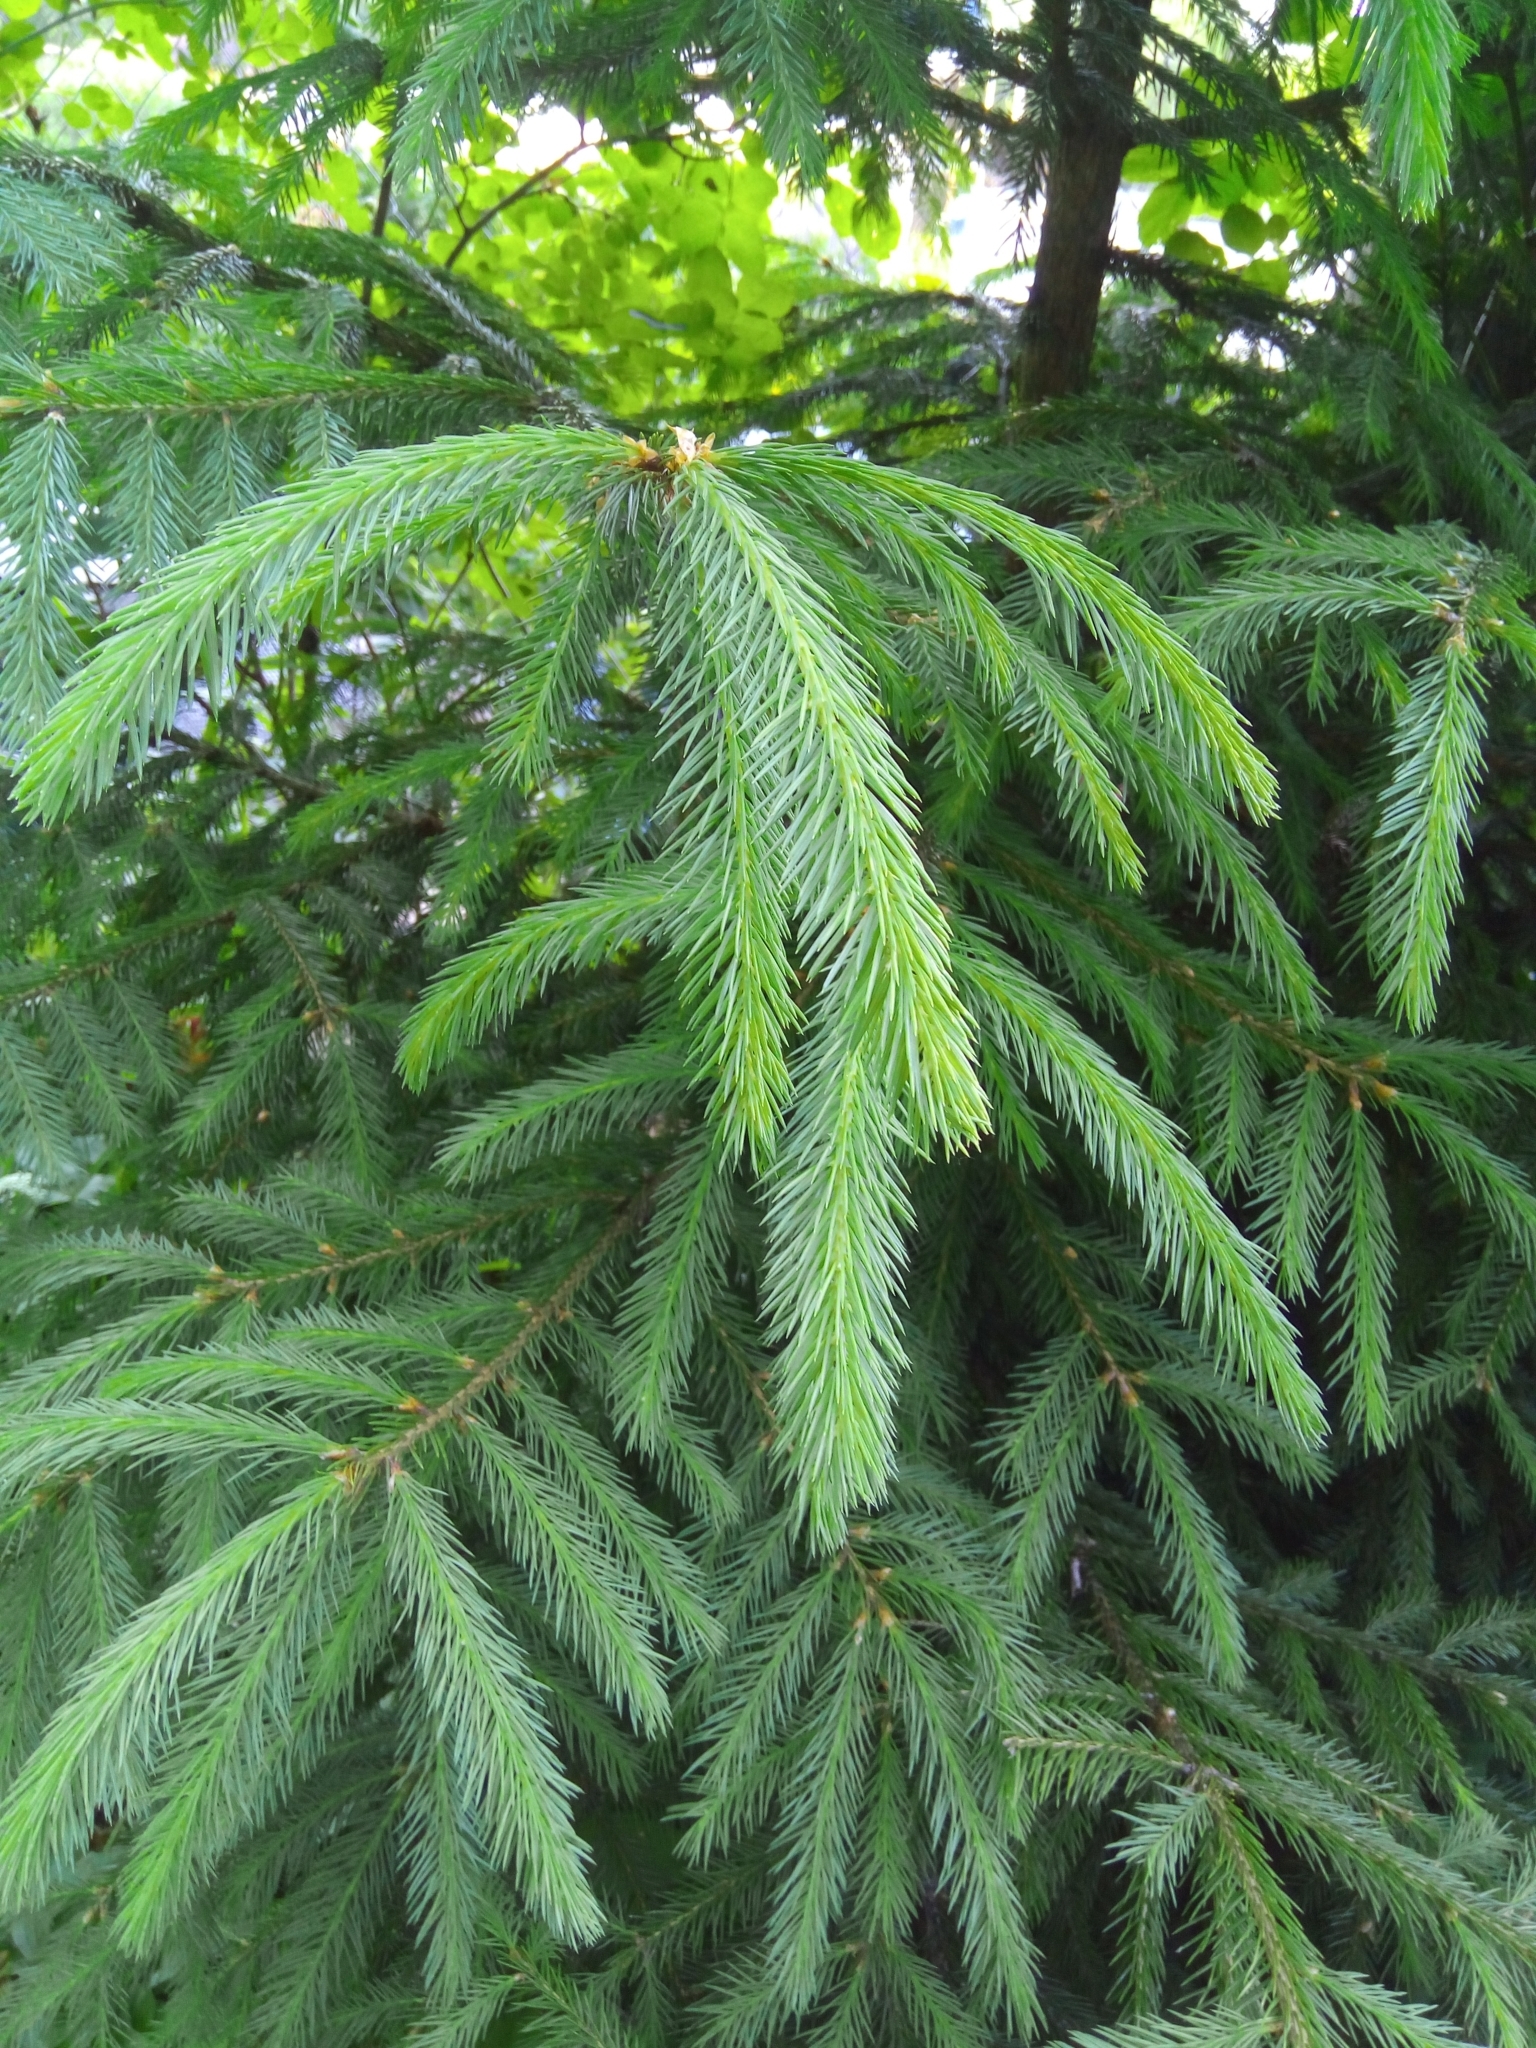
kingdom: Plantae
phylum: Tracheophyta
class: Pinopsida
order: Pinales
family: Pinaceae
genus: Picea
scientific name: Picea abies
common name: Norway spruce
